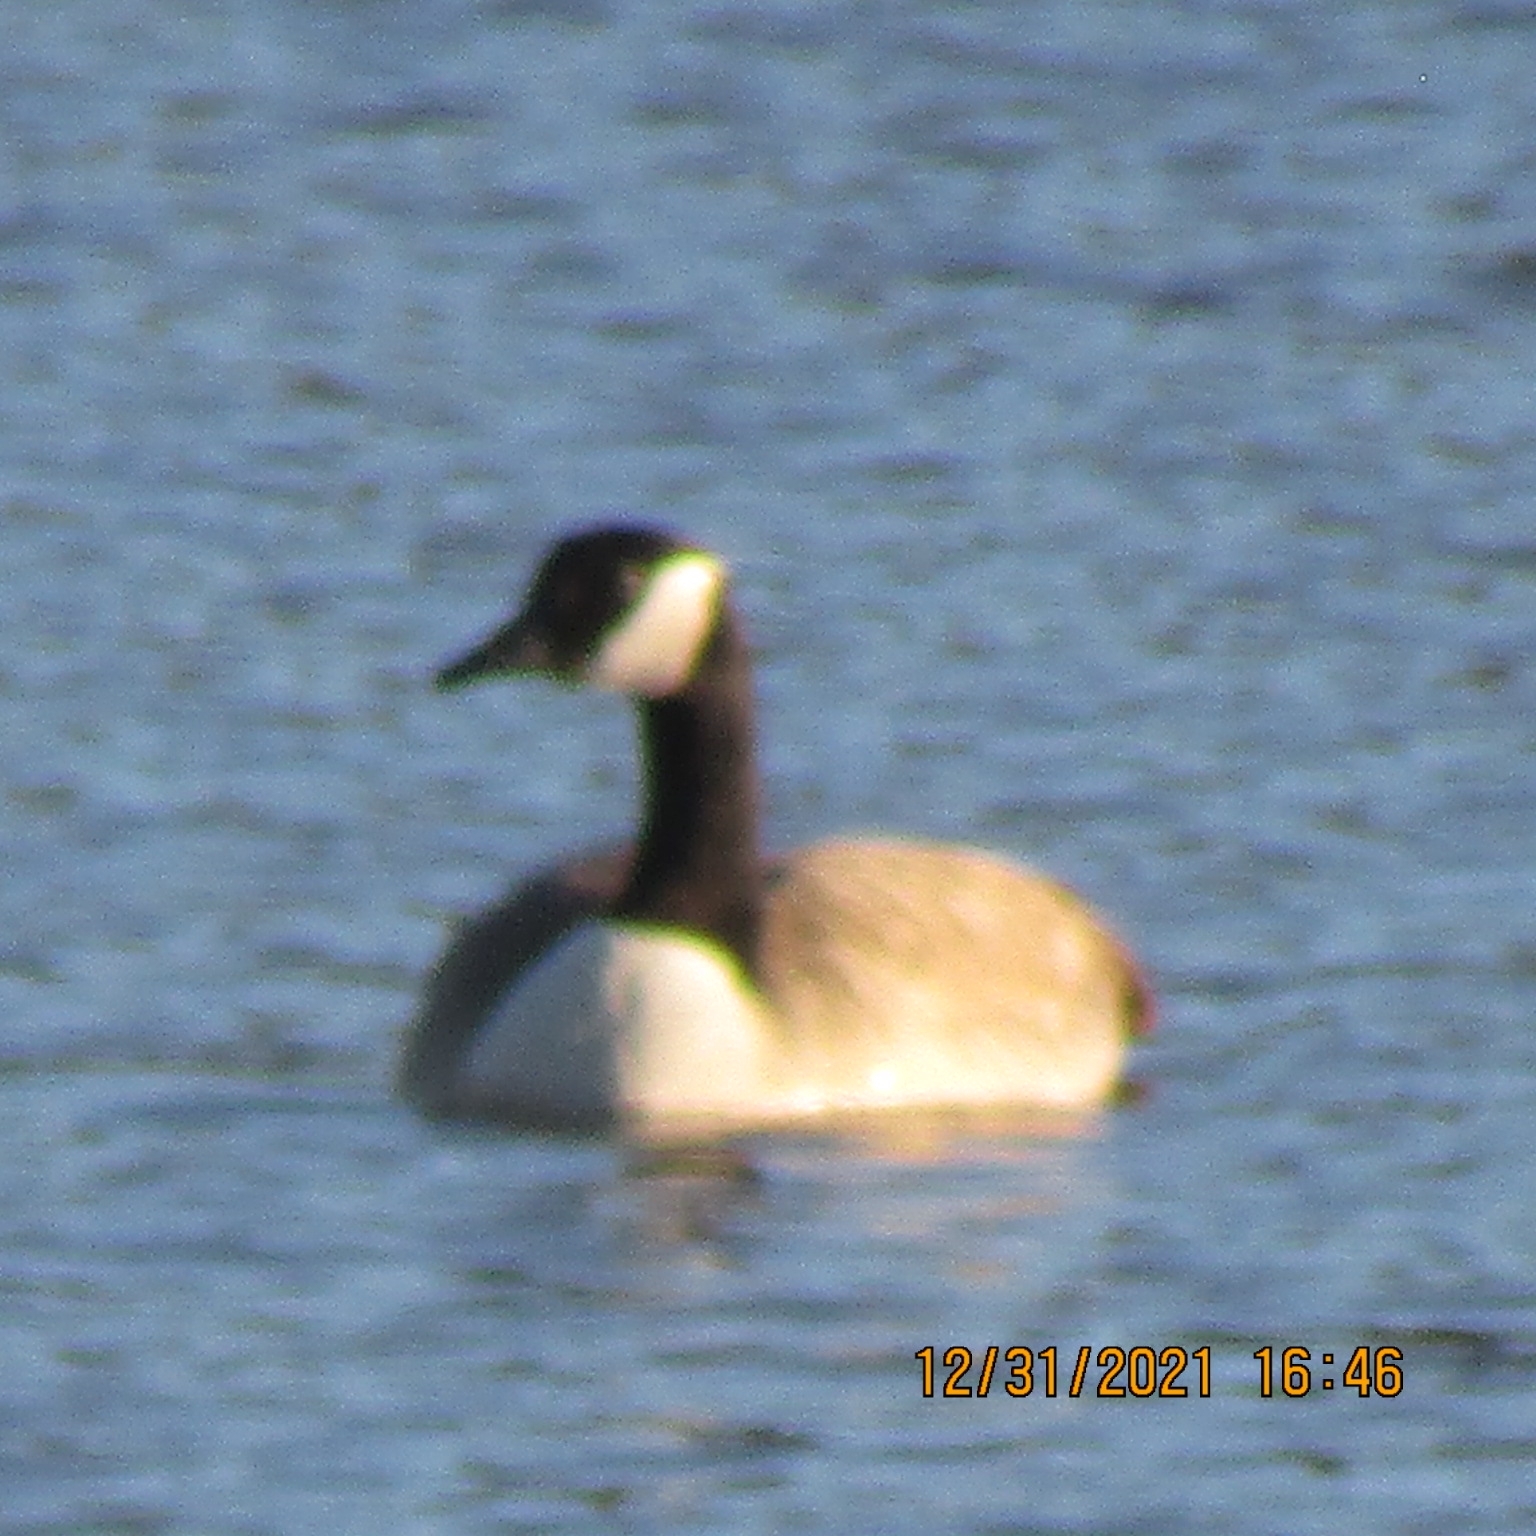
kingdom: Animalia
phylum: Chordata
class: Aves
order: Anseriformes
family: Anatidae
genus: Branta
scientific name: Branta canadensis
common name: Canada goose
